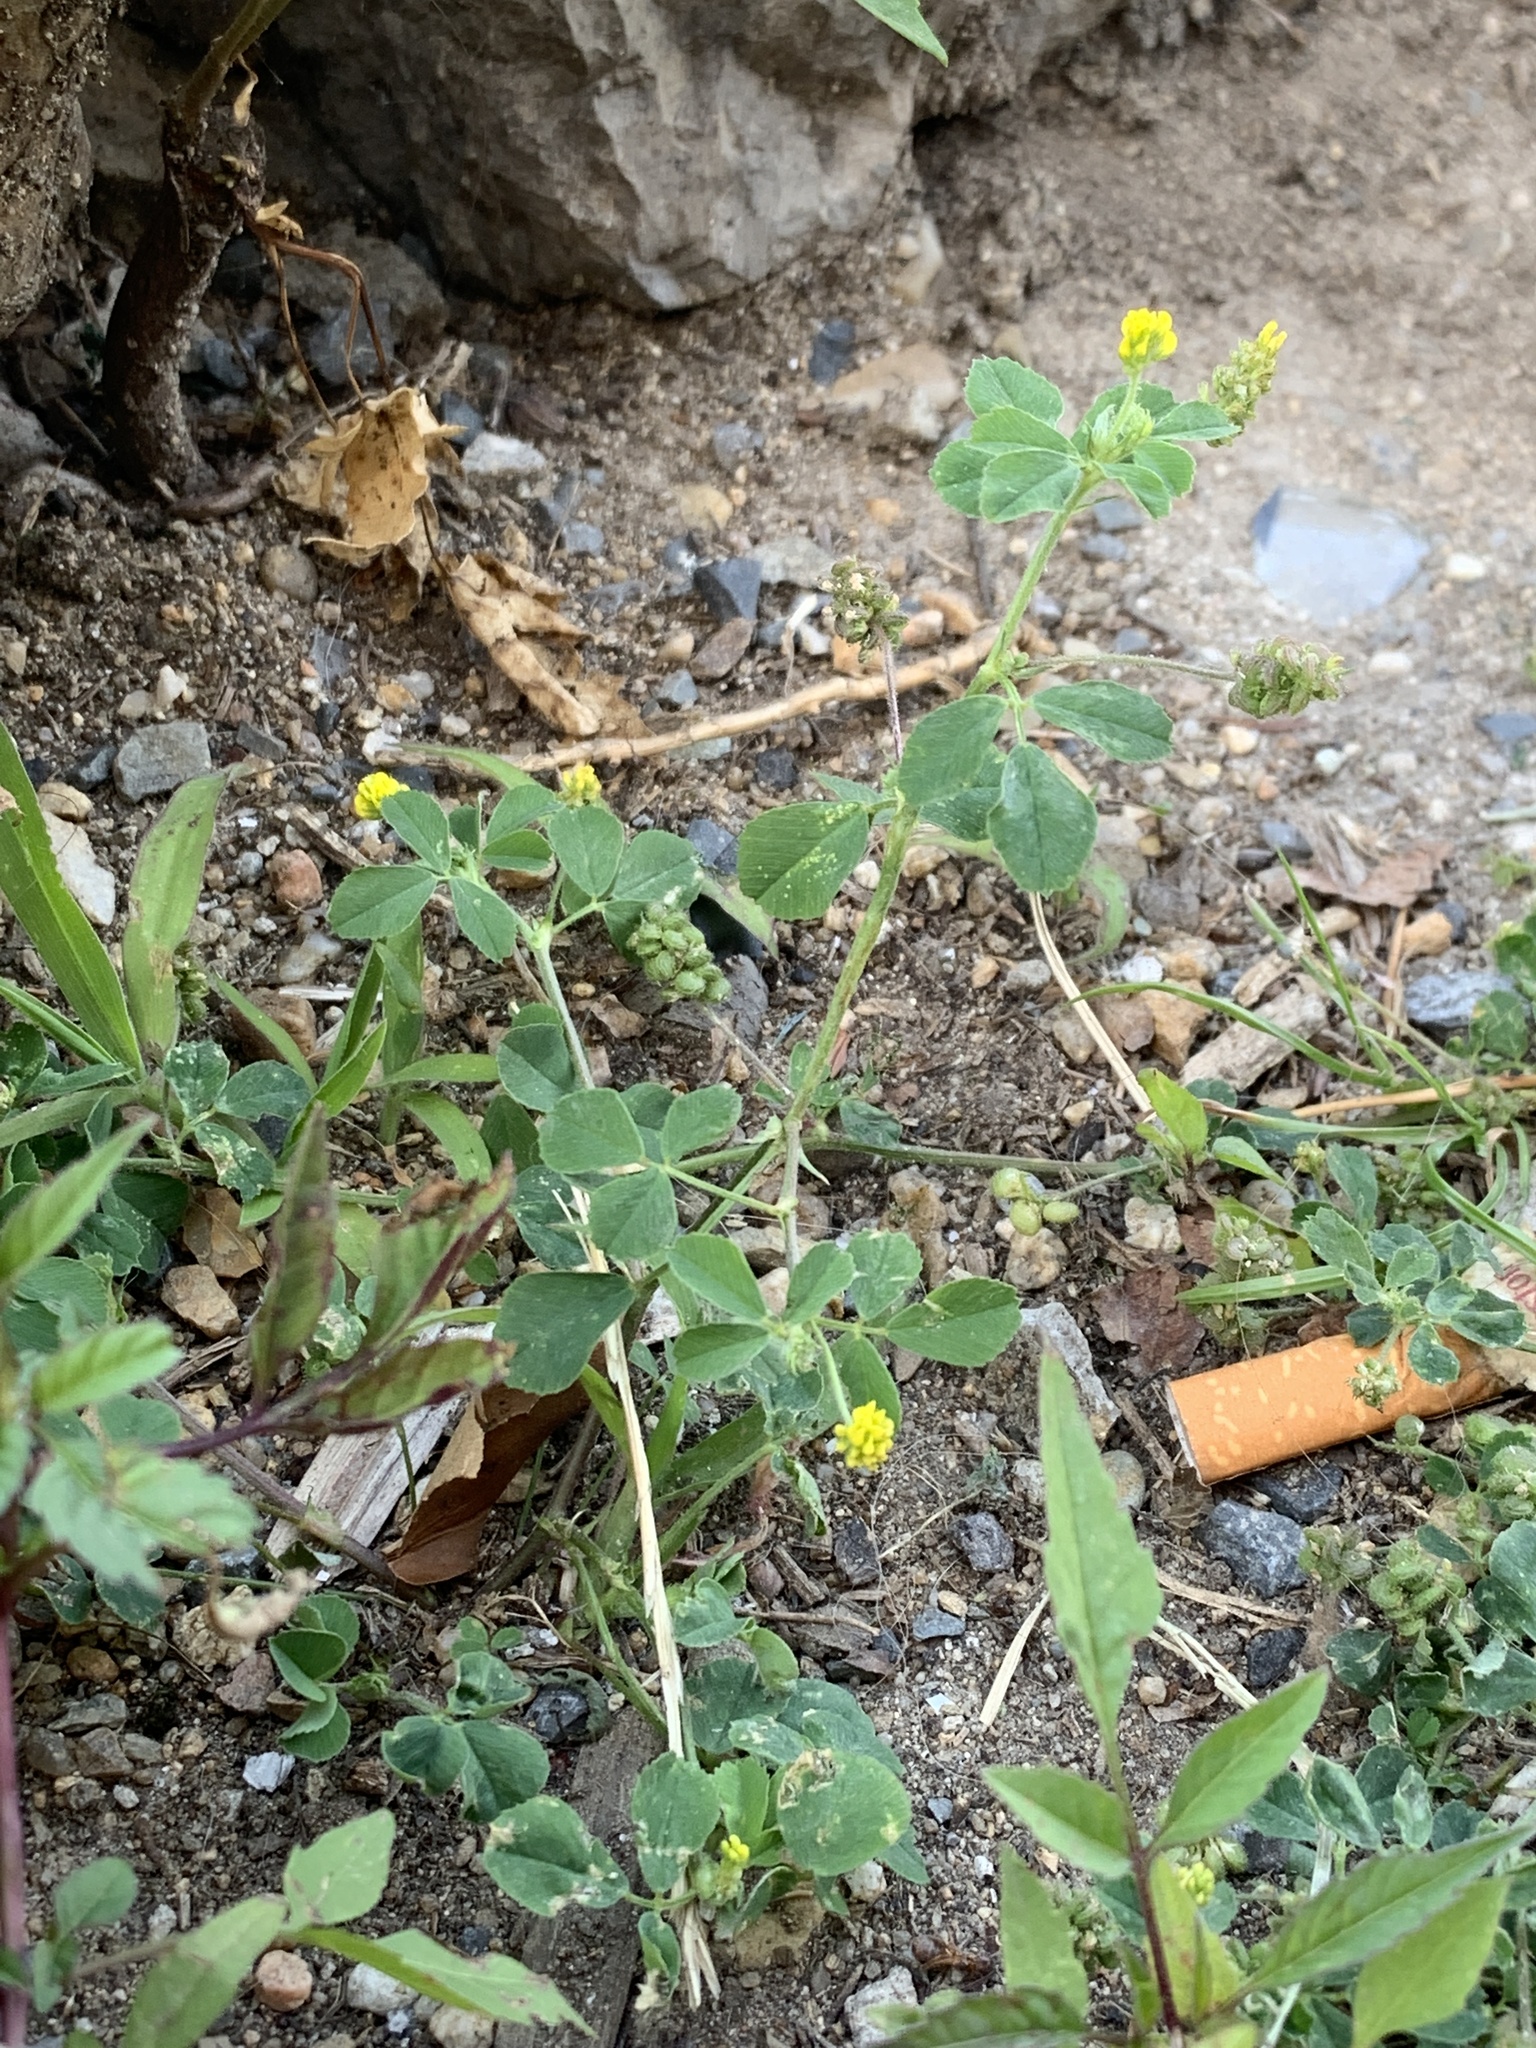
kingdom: Plantae
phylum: Tracheophyta
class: Magnoliopsida
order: Fabales
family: Fabaceae
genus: Medicago
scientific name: Medicago lupulina
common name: Black medick
